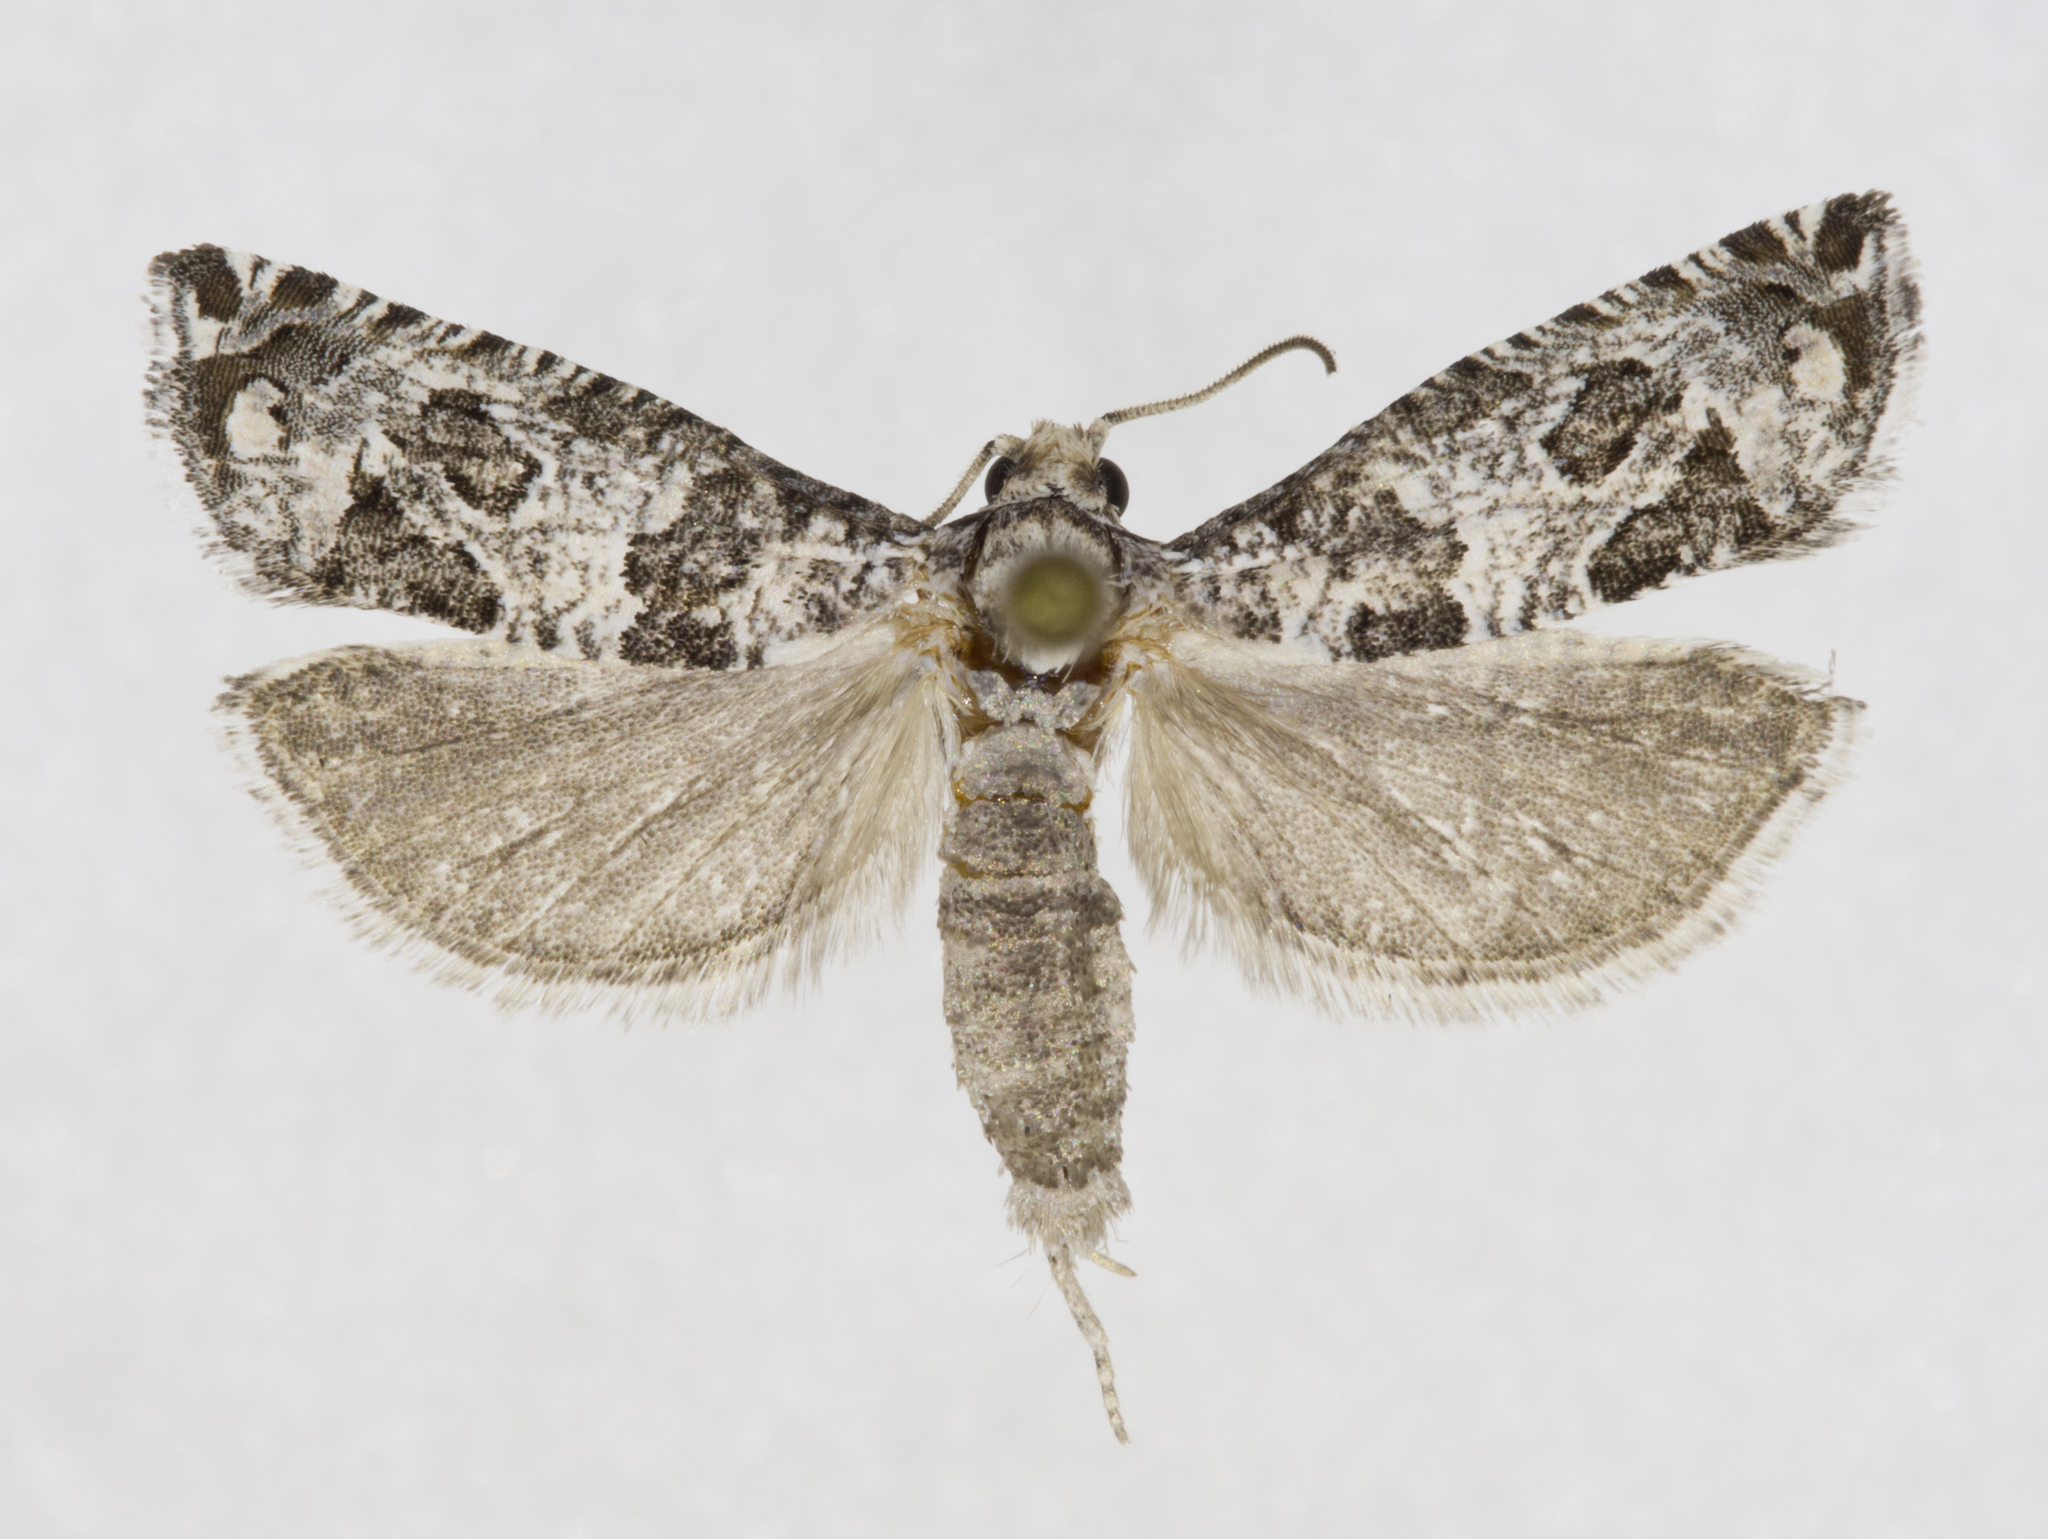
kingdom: Animalia
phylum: Arthropoda
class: Insecta
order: Lepidoptera
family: Tortricidae
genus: Sonia
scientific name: Sonia vovana
